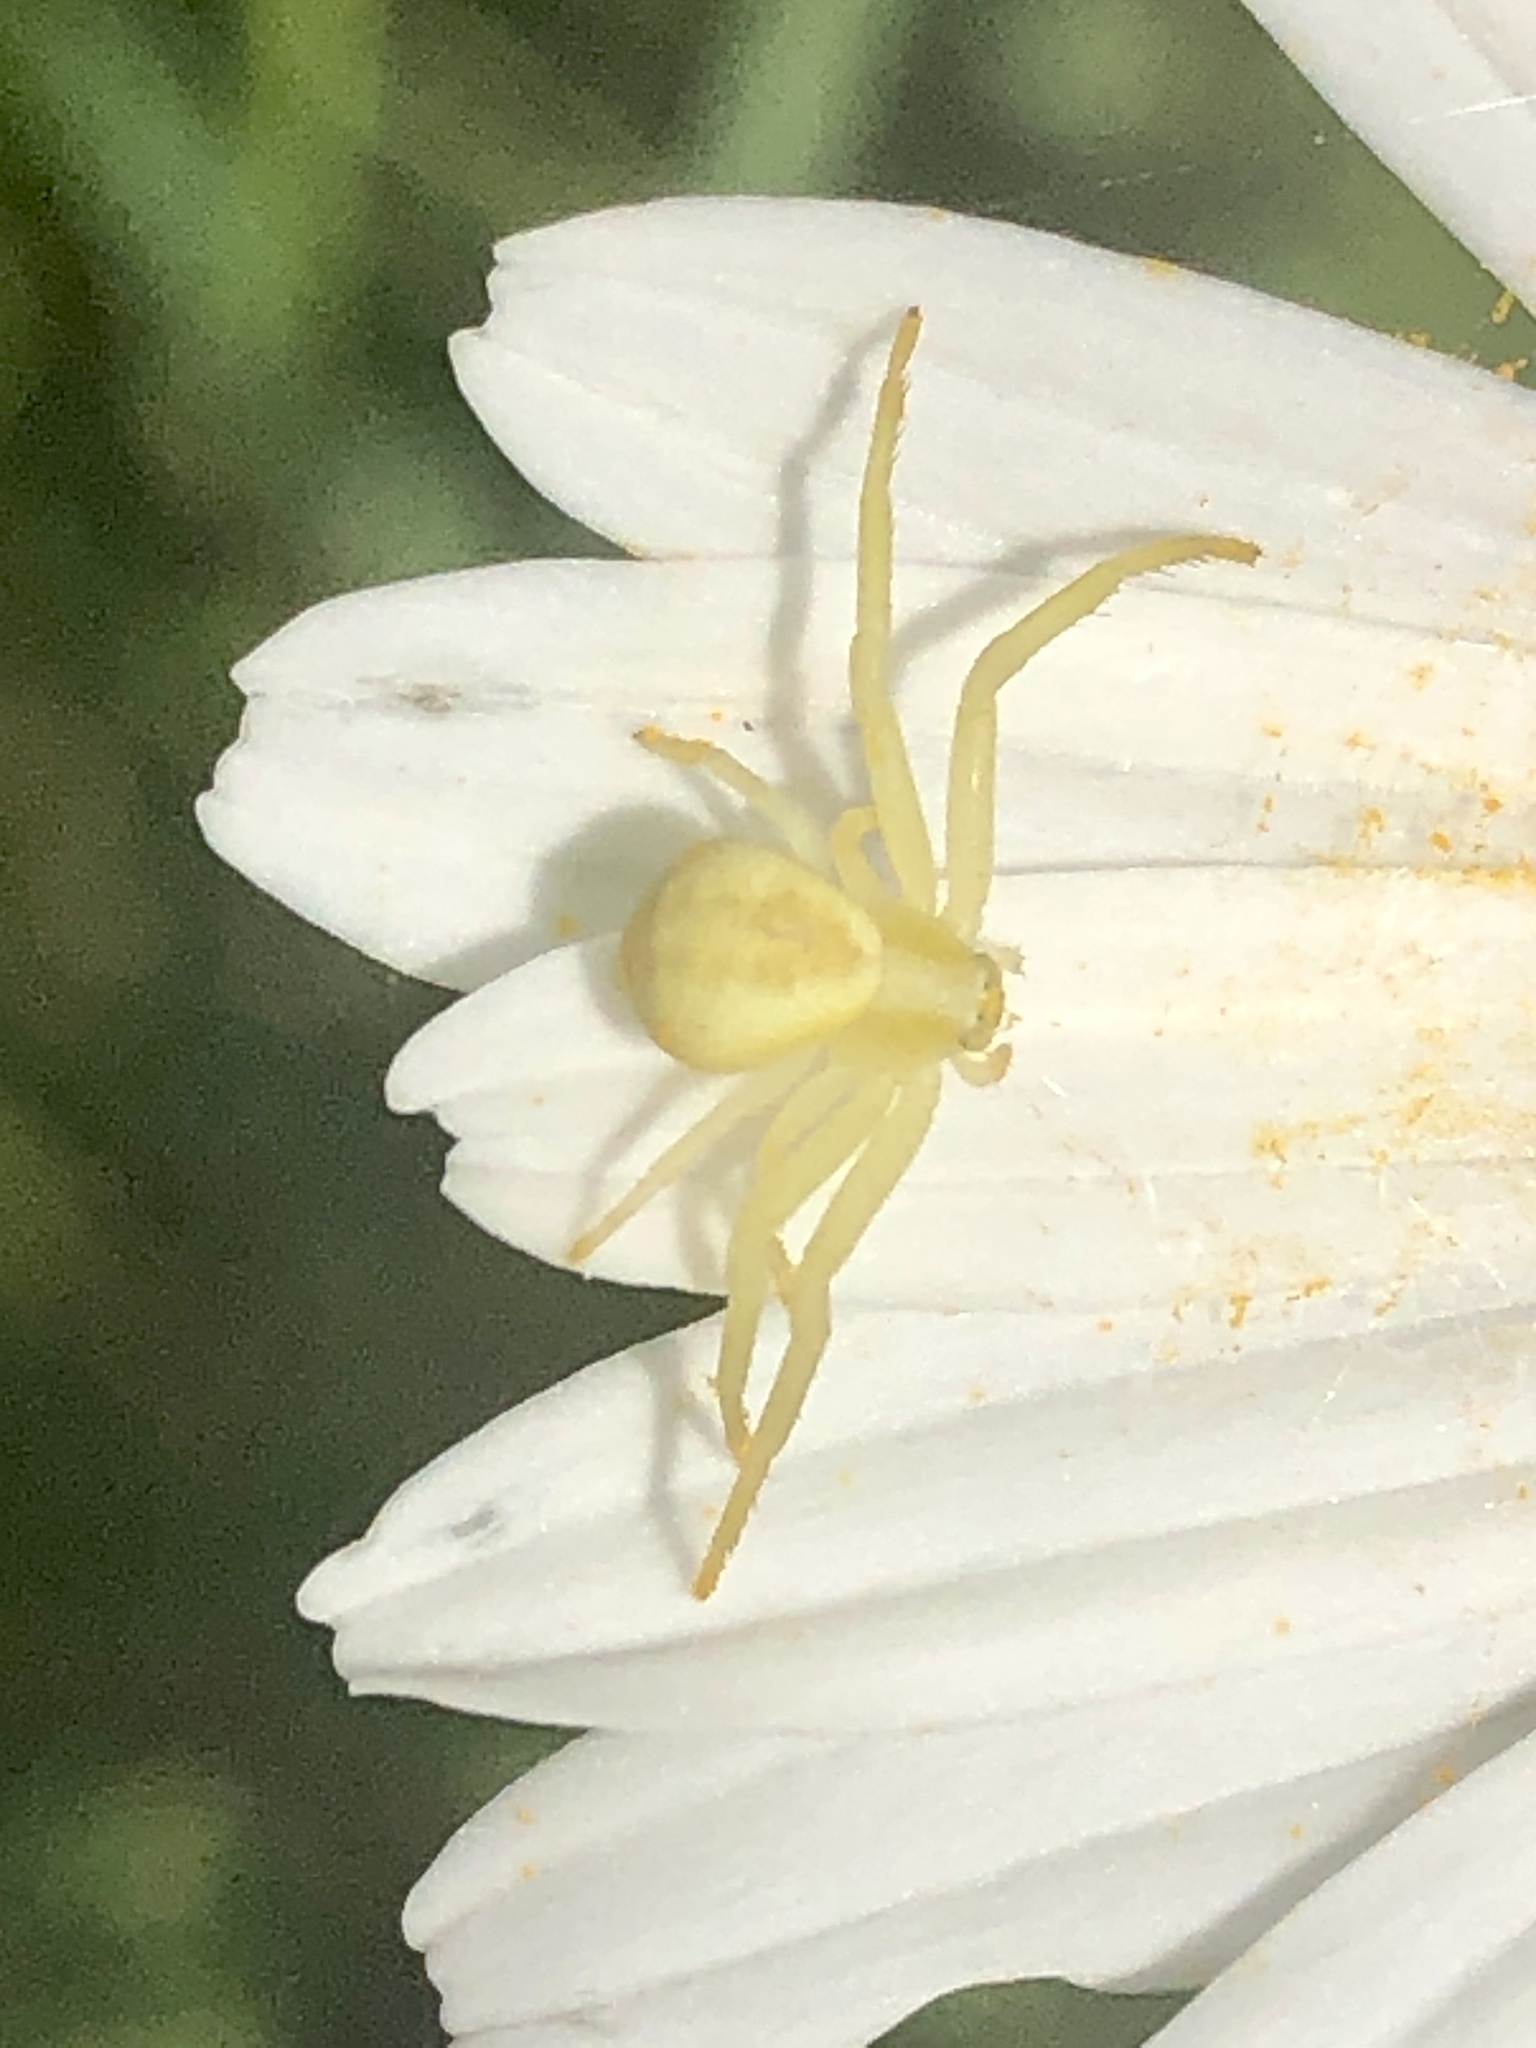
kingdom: Animalia
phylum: Arthropoda
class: Arachnida
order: Araneae
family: Thomisidae
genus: Misumena
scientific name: Misumena vatia
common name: Goldenrod crab spider
